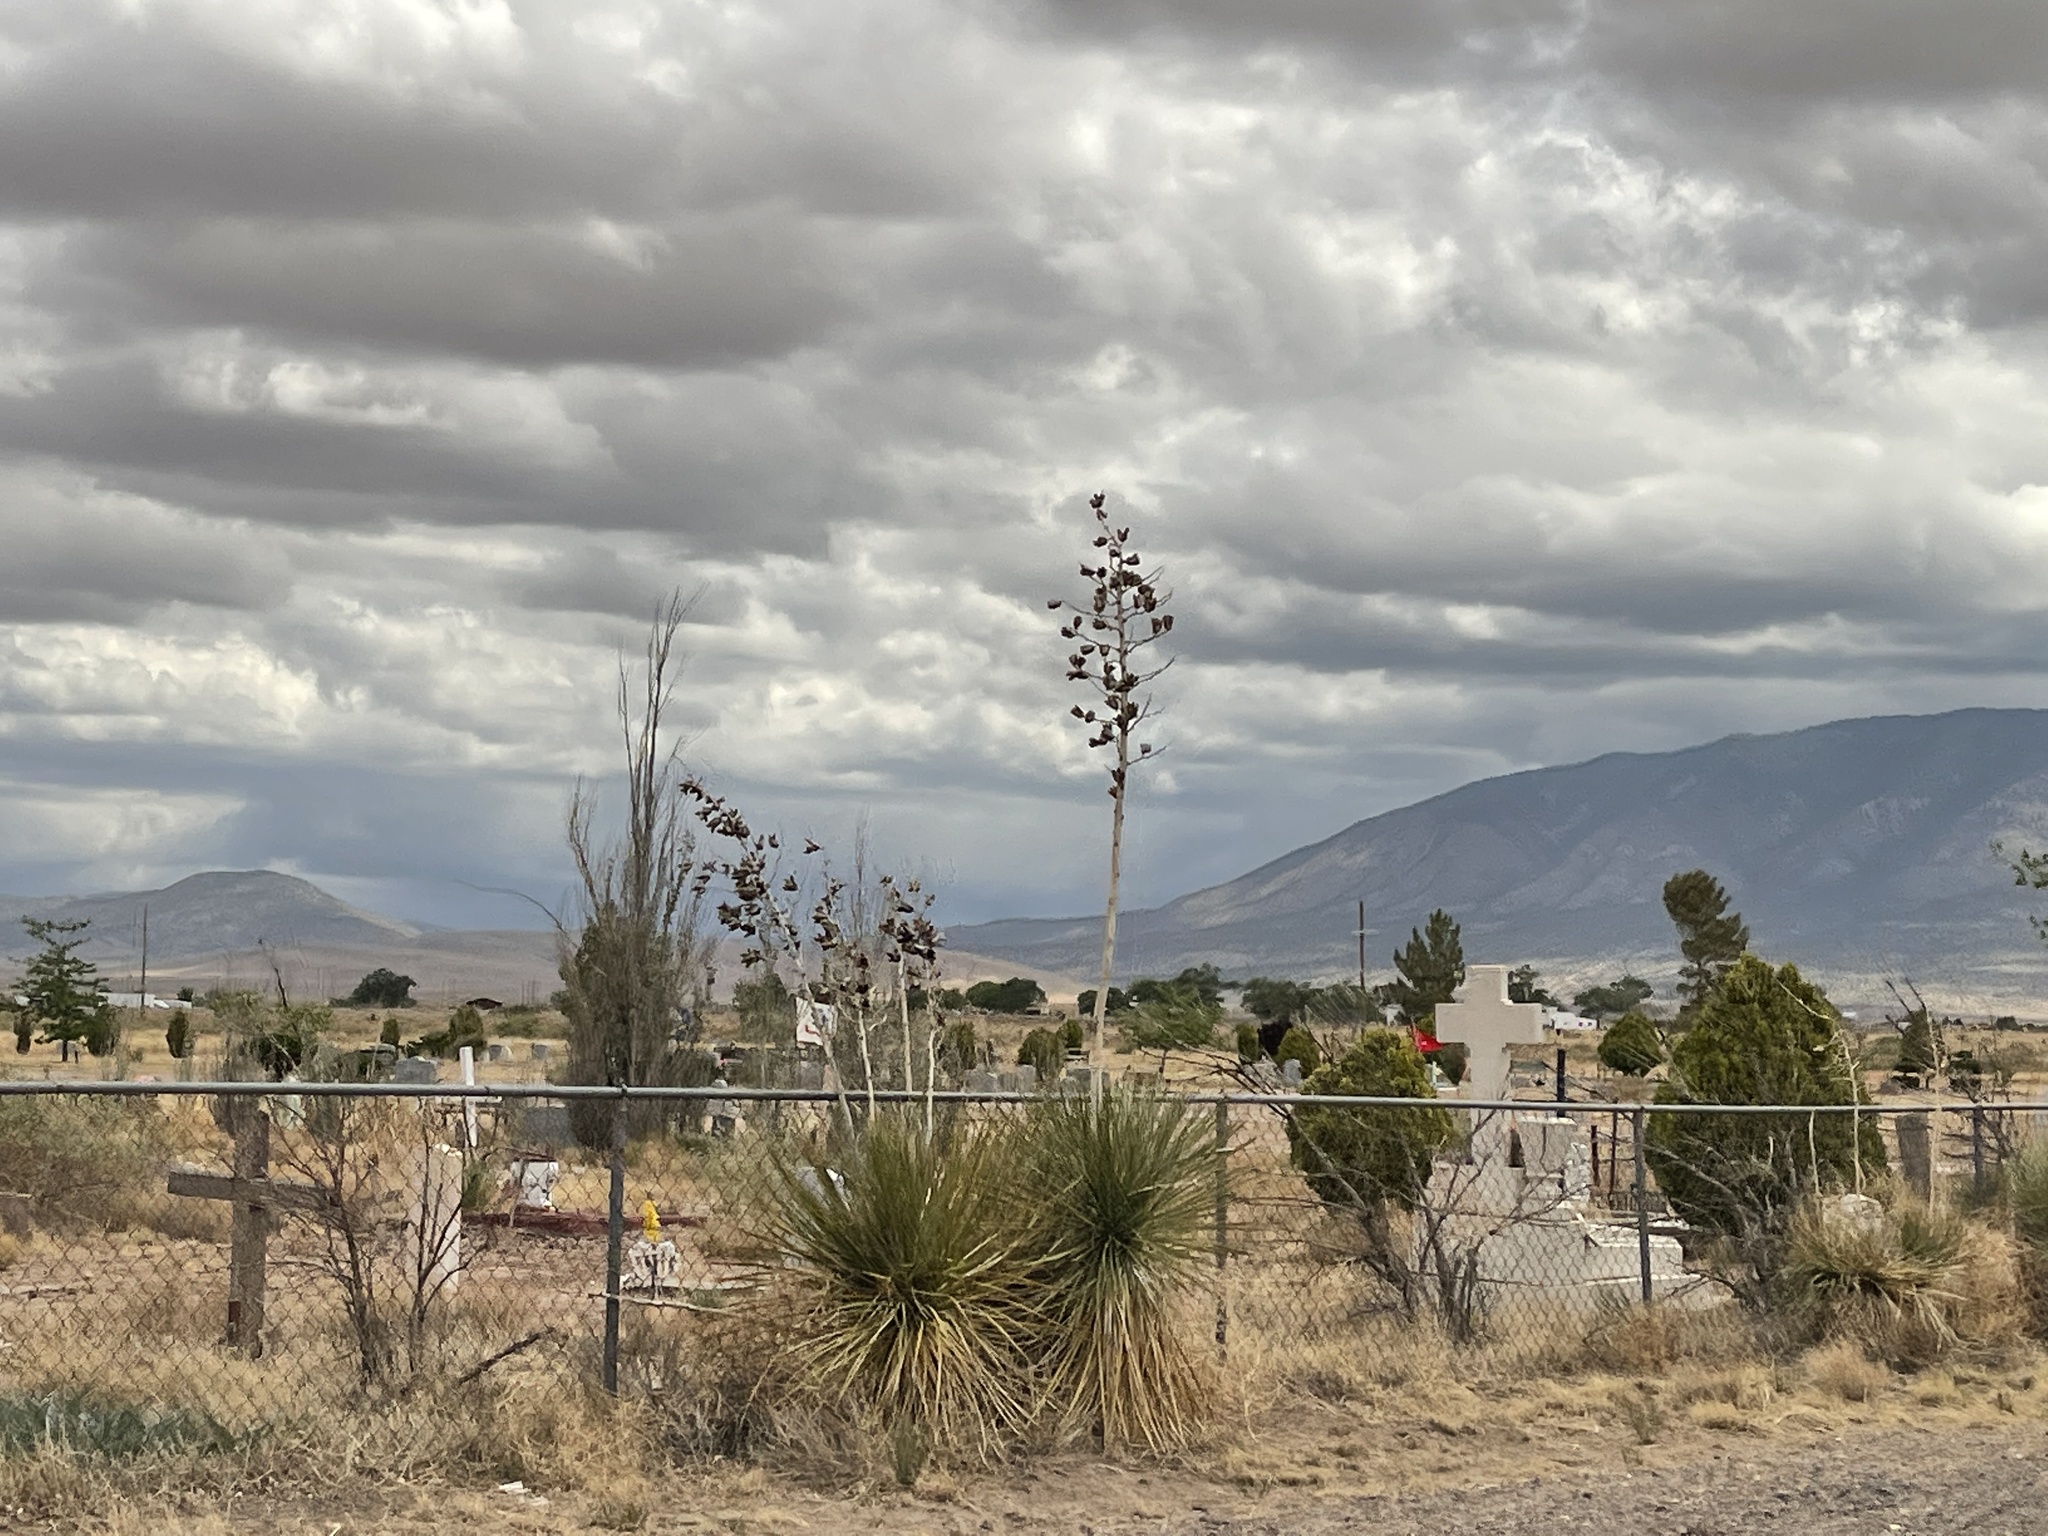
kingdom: Plantae
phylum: Tracheophyta
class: Liliopsida
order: Asparagales
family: Asparagaceae
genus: Yucca
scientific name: Yucca elata
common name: Palmella
